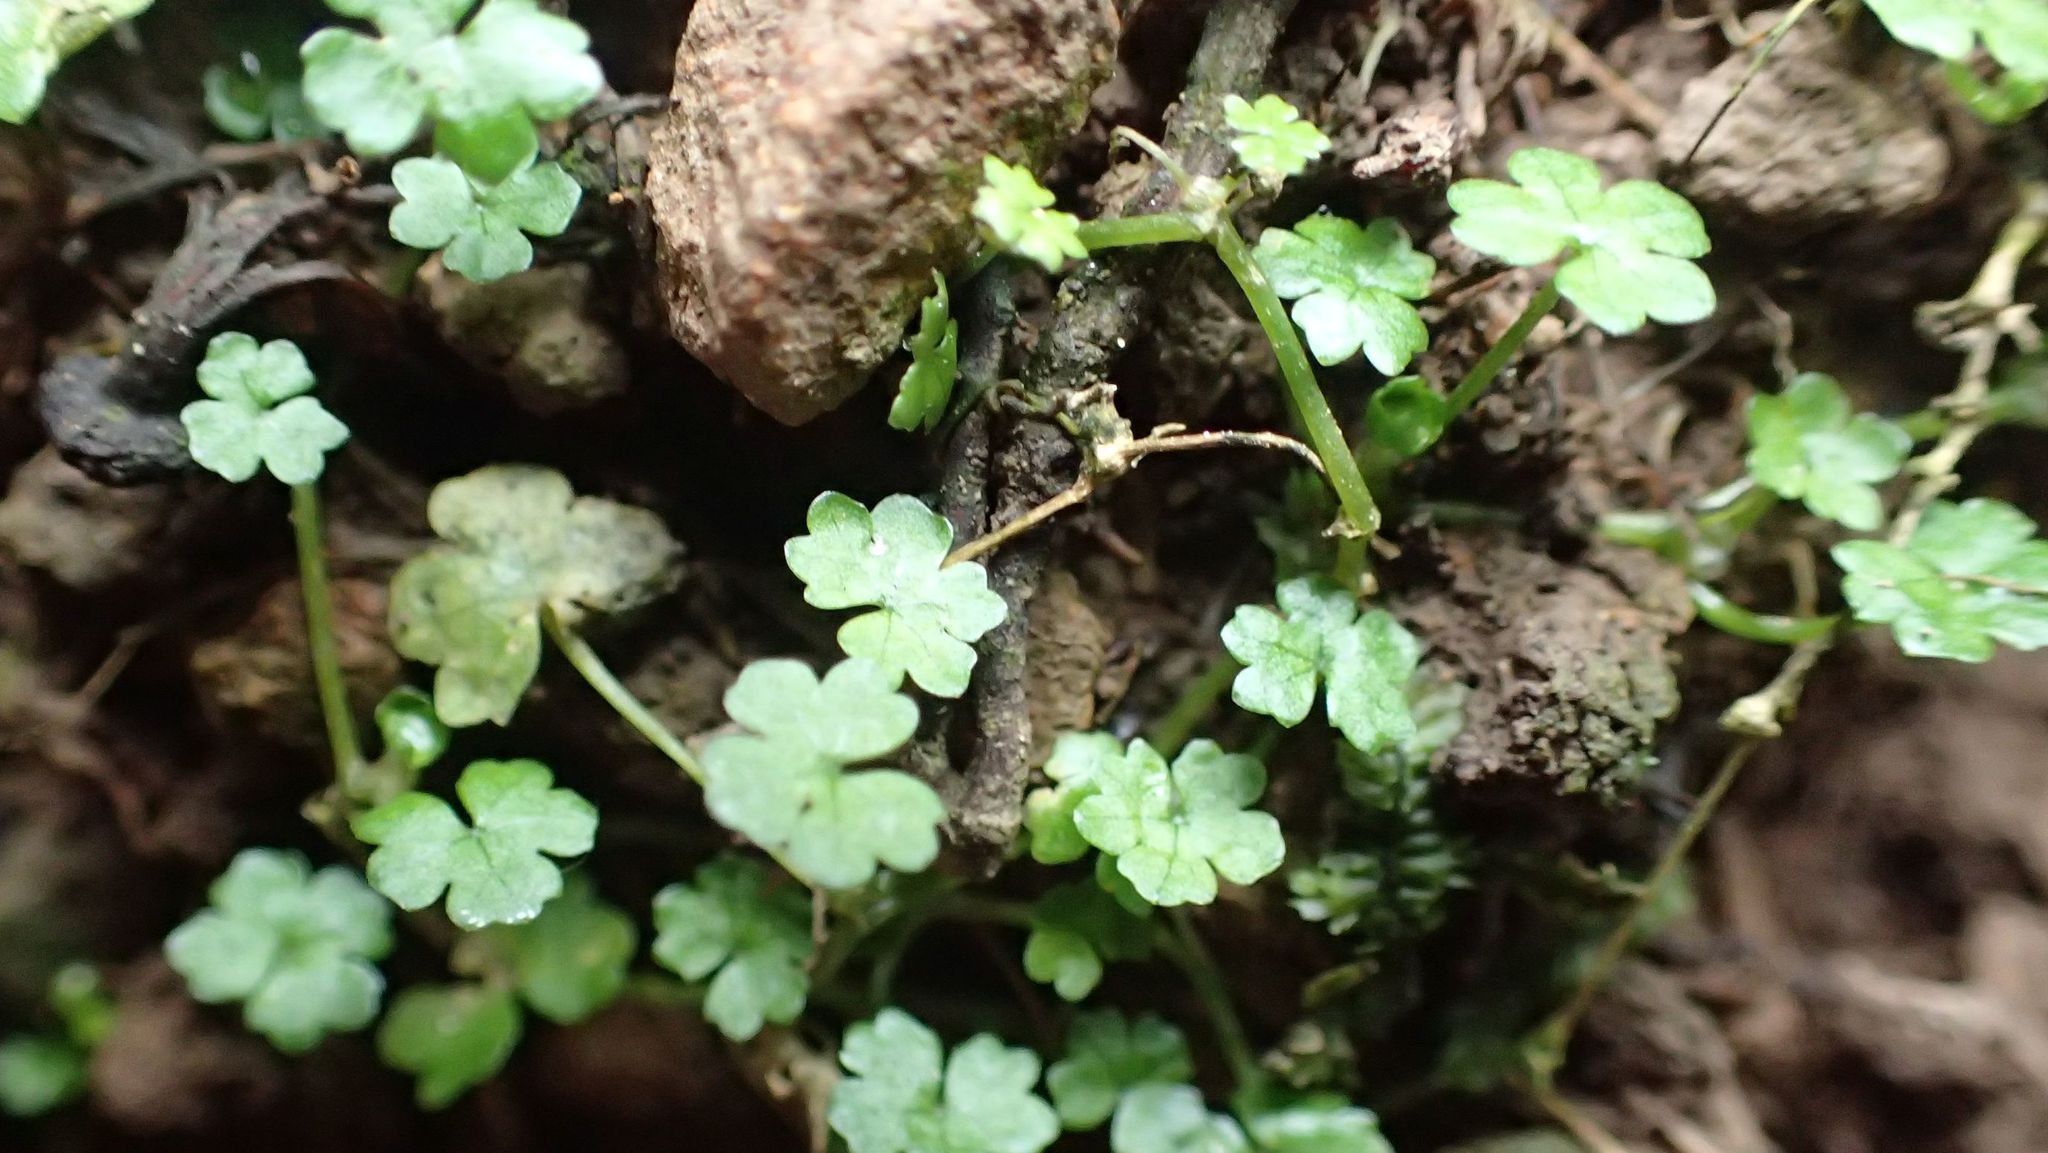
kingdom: Plantae
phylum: Tracheophyta
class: Magnoliopsida
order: Apiales
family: Araliaceae
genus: Hydrocotyle
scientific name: Hydrocotyle microphylla
